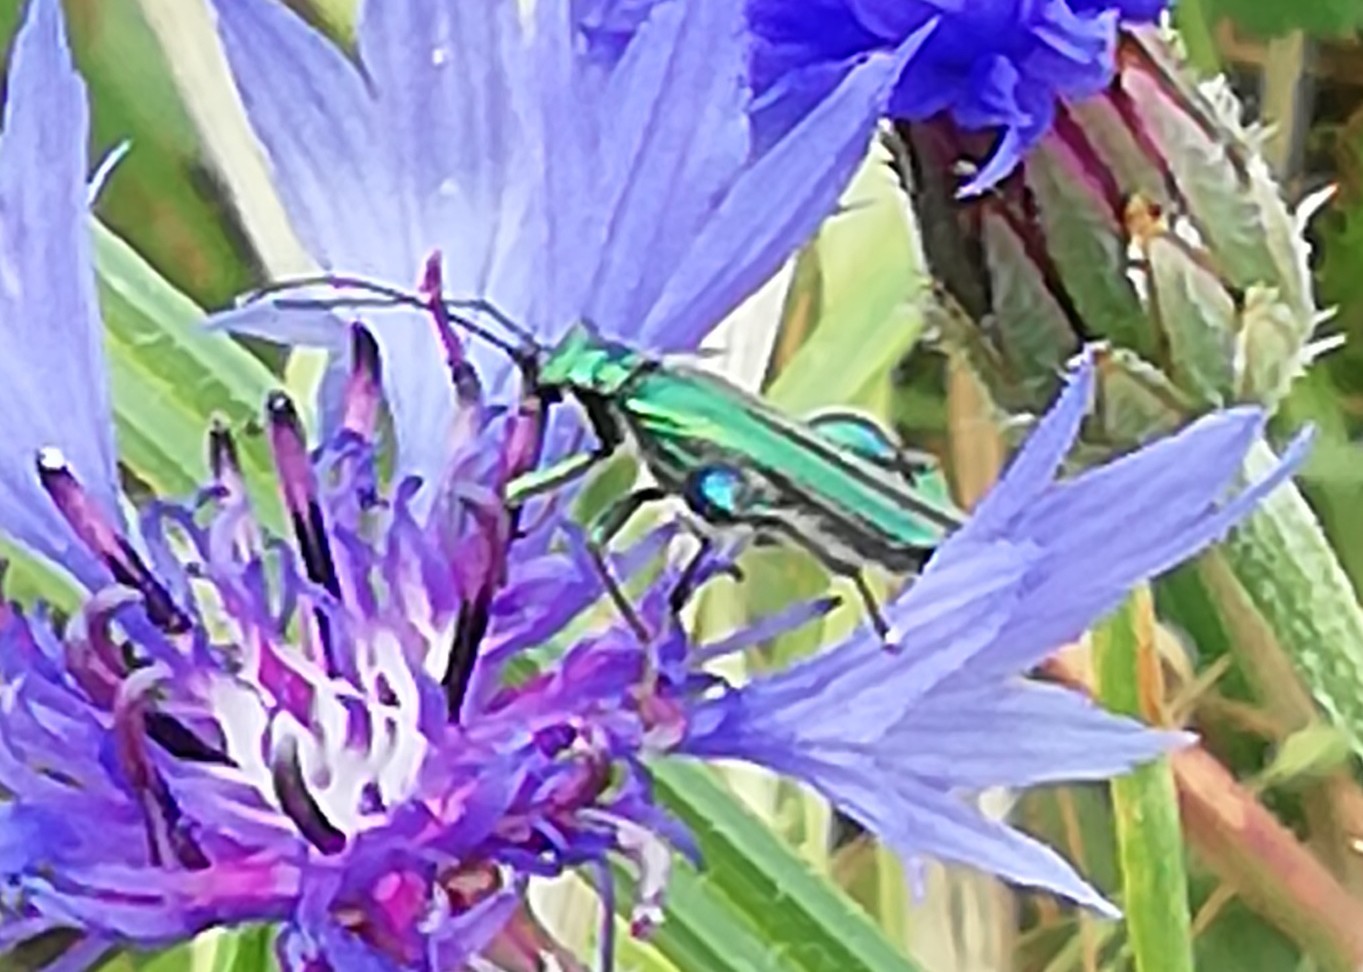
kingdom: Animalia
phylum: Arthropoda
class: Insecta
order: Coleoptera
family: Oedemeridae
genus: Oedemera
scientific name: Oedemera nobilis
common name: Swollen-thighed beetle
